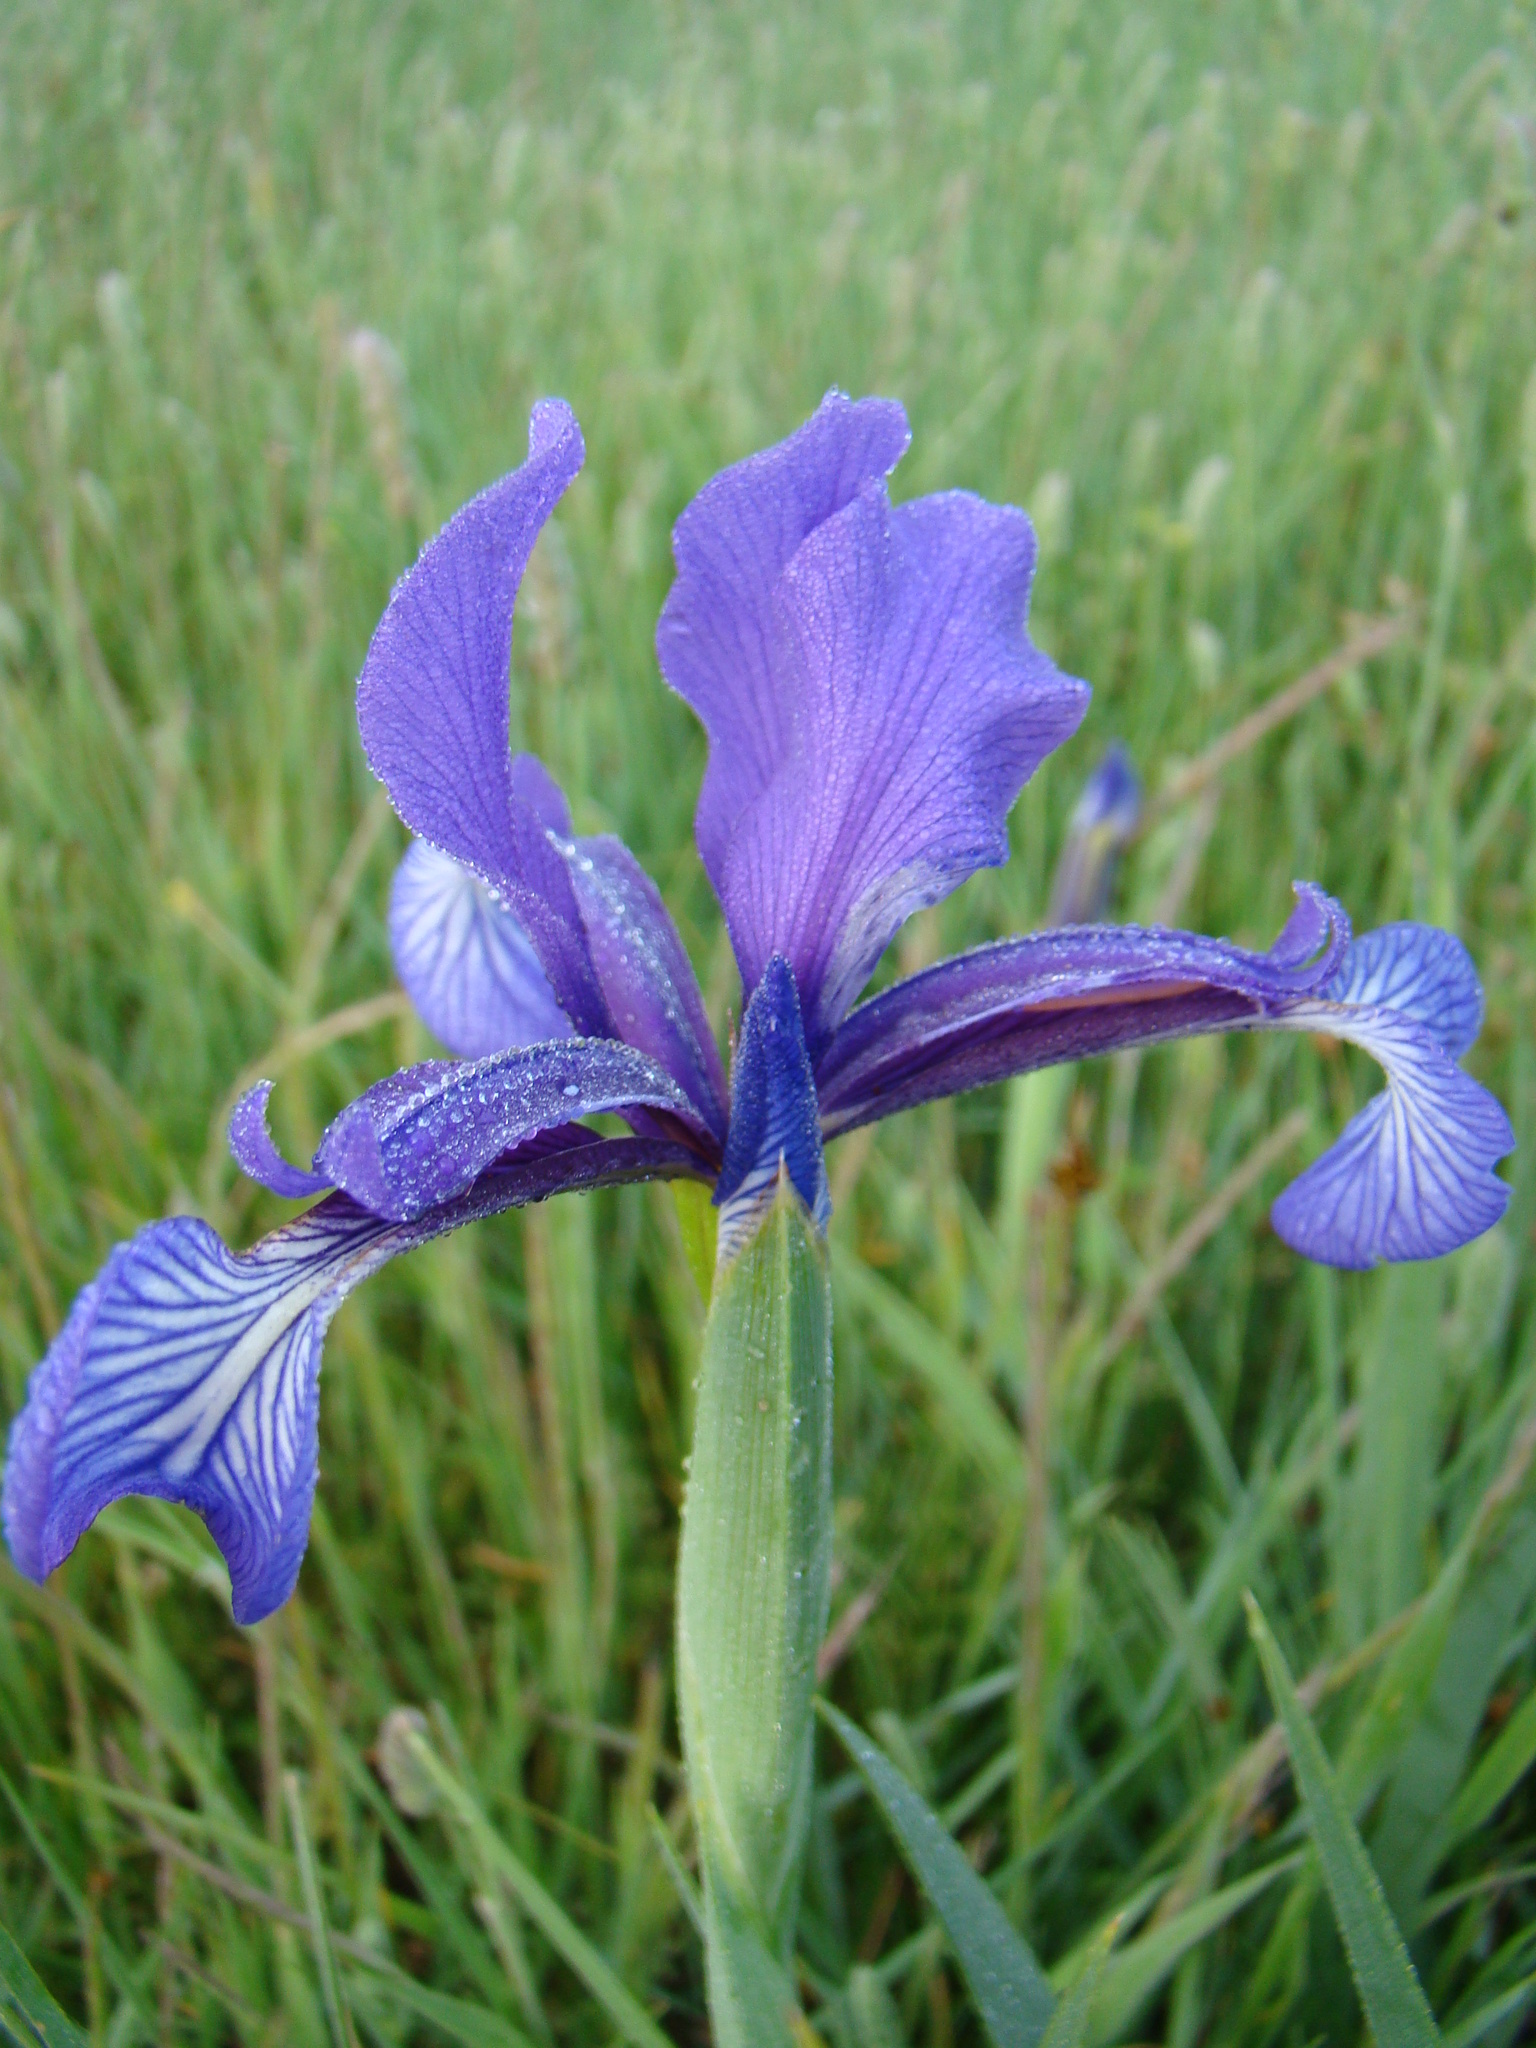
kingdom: Plantae
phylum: Tracheophyta
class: Liliopsida
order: Asparagales
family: Iridaceae
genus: Iris
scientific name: Iris reichenbachiana
